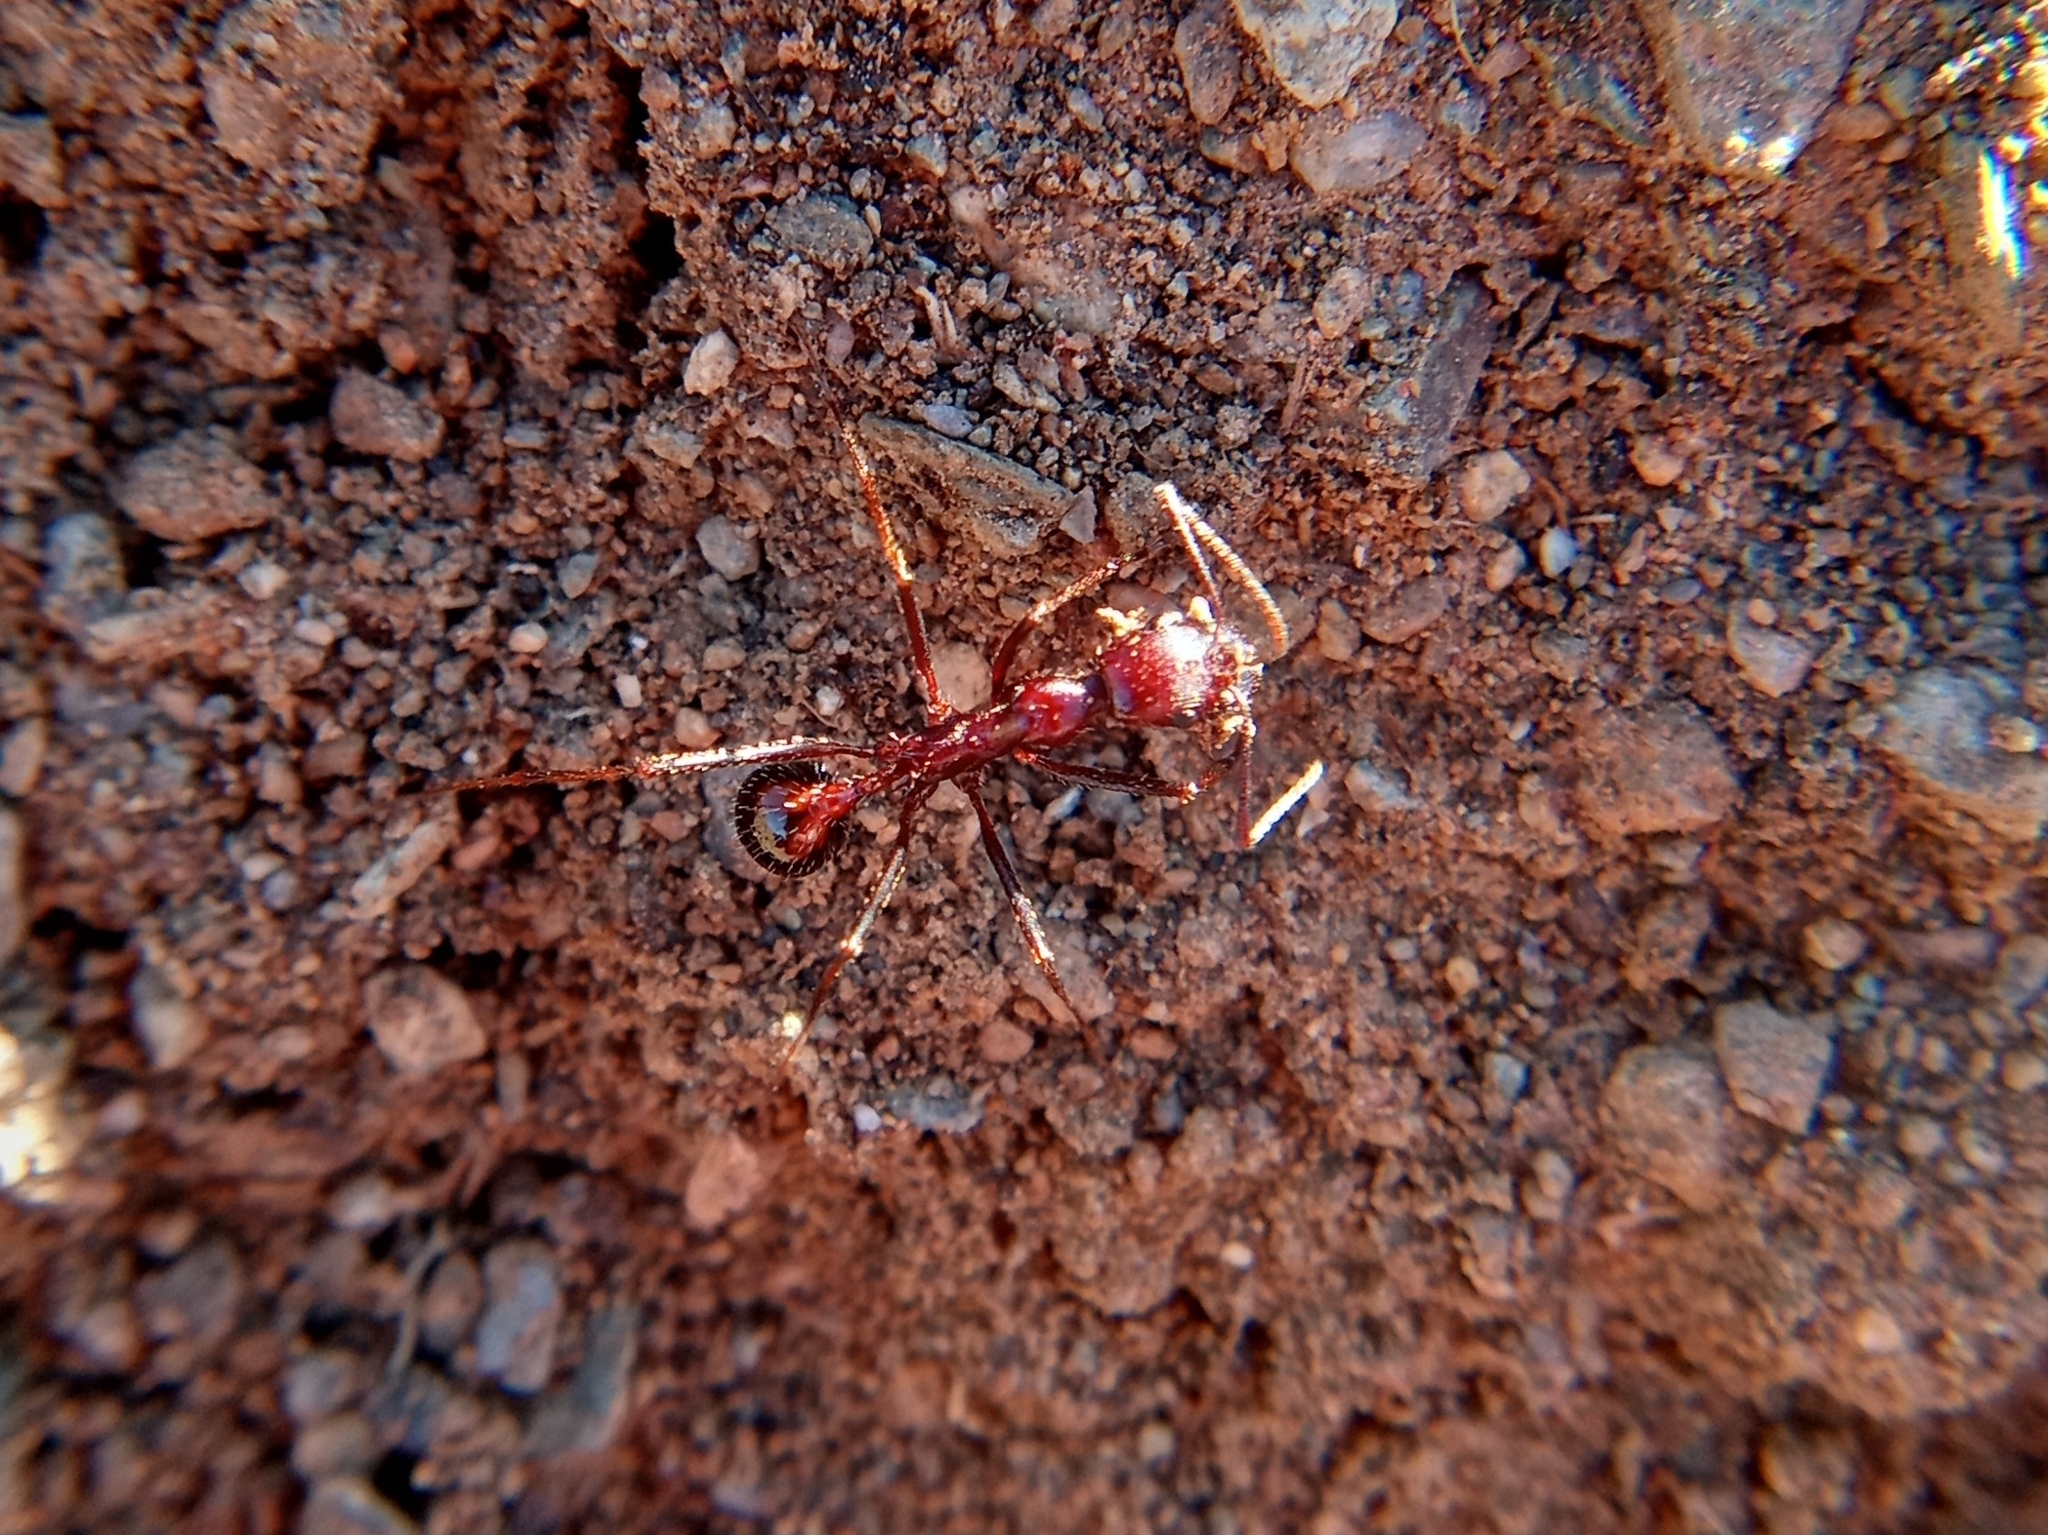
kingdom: Animalia
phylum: Arthropoda
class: Insecta
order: Hymenoptera
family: Formicidae
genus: Novomessor
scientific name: Novomessor cockerelli
